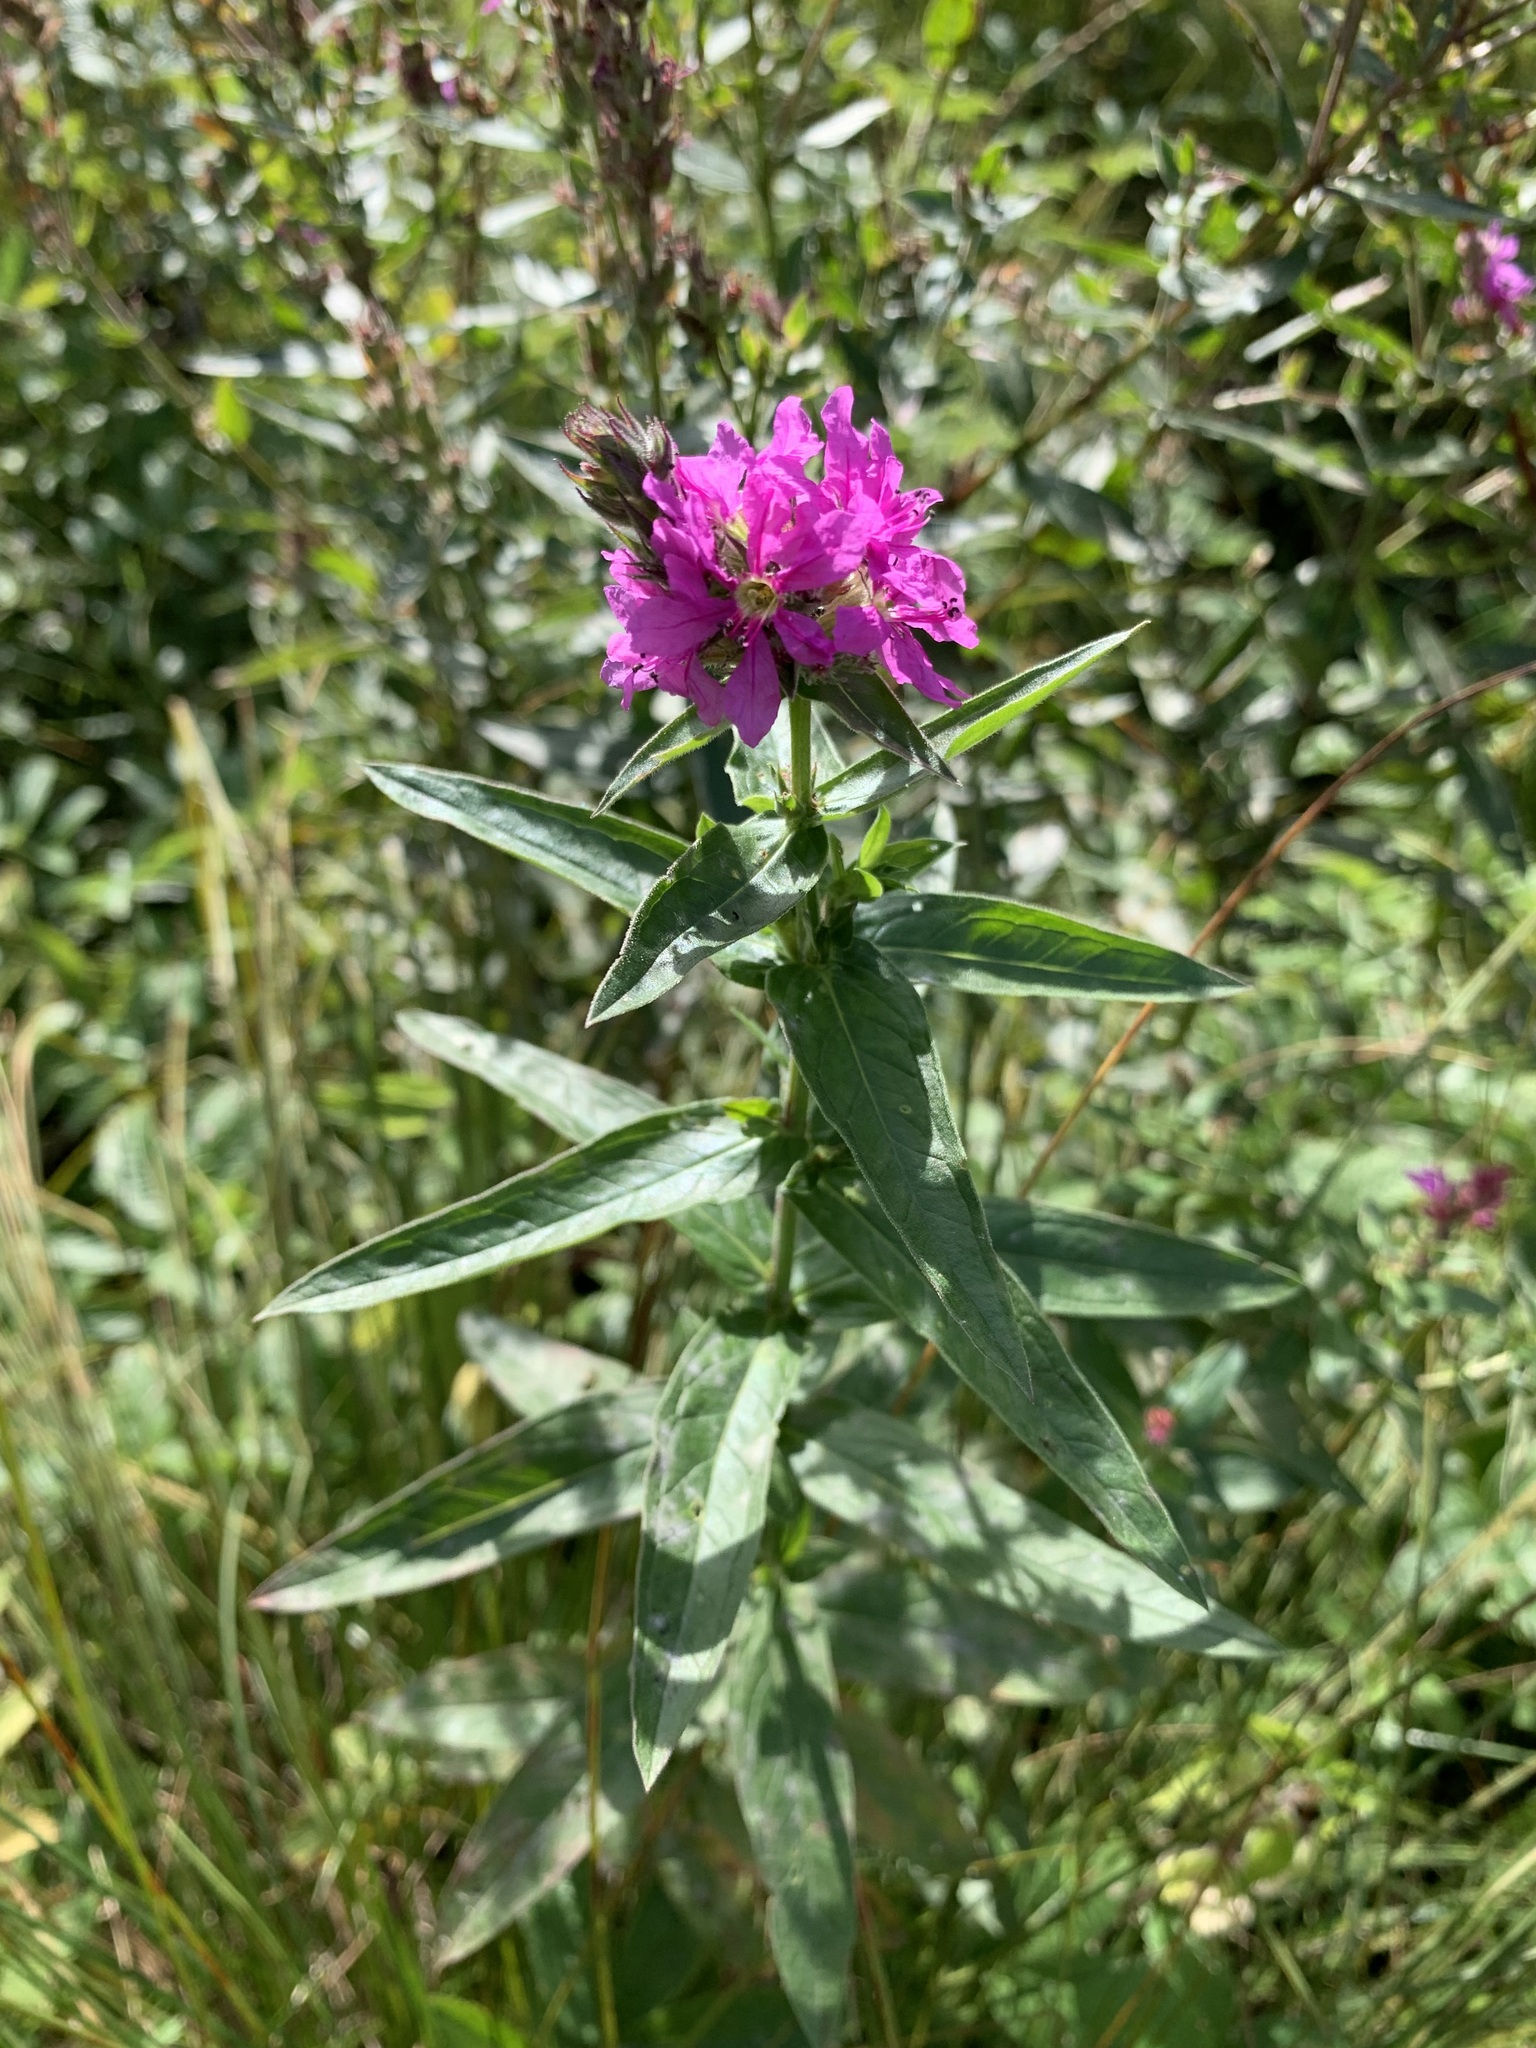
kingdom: Plantae
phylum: Tracheophyta
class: Magnoliopsida
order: Myrtales
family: Lythraceae
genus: Lythrum
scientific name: Lythrum salicaria
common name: Purple loosestrife
